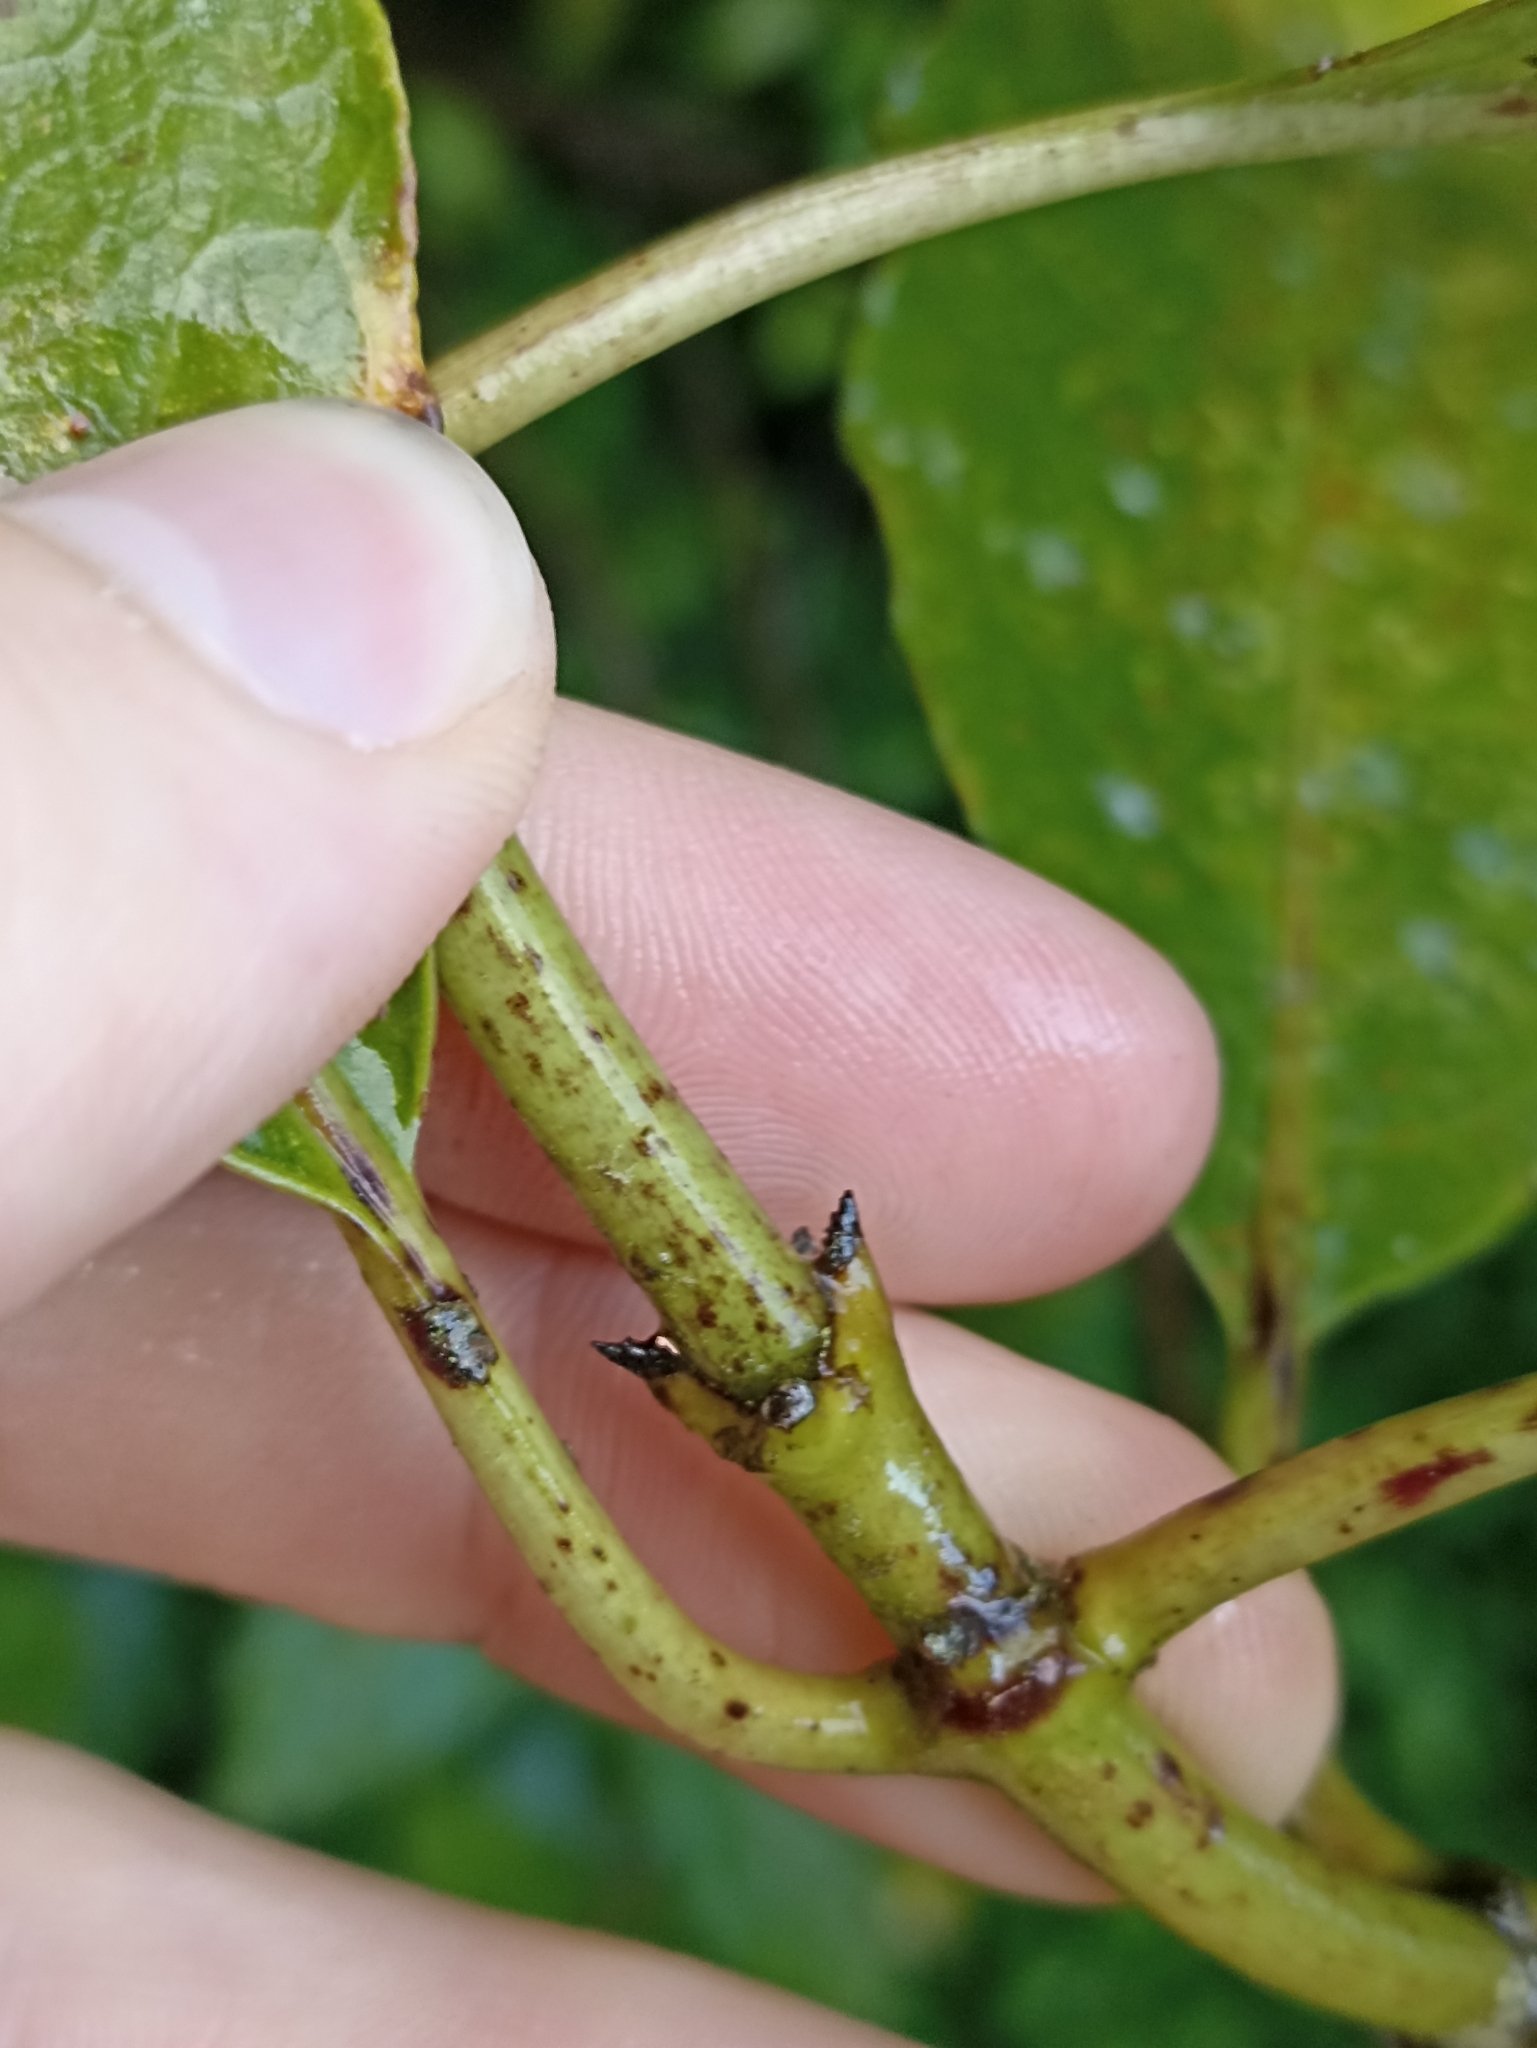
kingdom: Plantae
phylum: Tracheophyta
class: Magnoliopsida
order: Gentianales
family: Rubiaceae
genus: Coprosma
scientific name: Coprosma autumnalis
